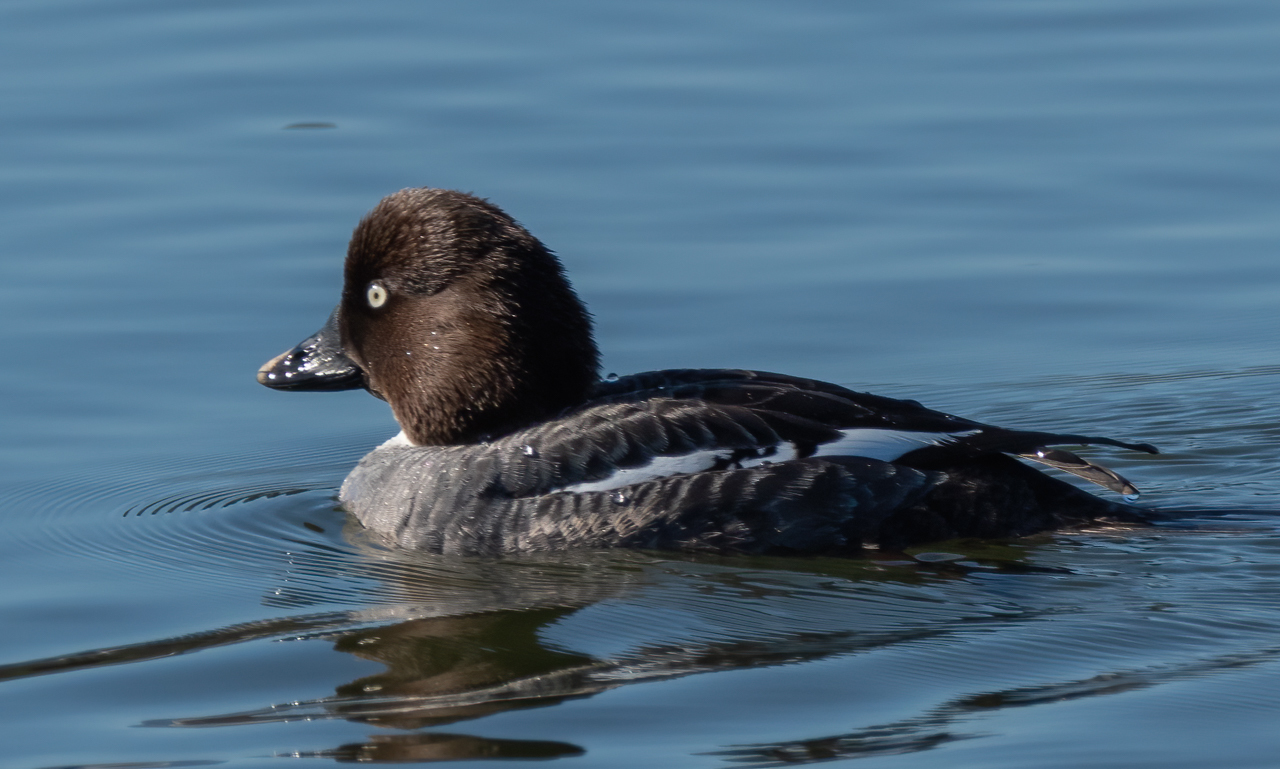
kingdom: Animalia
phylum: Chordata
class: Aves
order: Anseriformes
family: Anatidae
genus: Bucephala
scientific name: Bucephala clangula
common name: Common goldeneye
